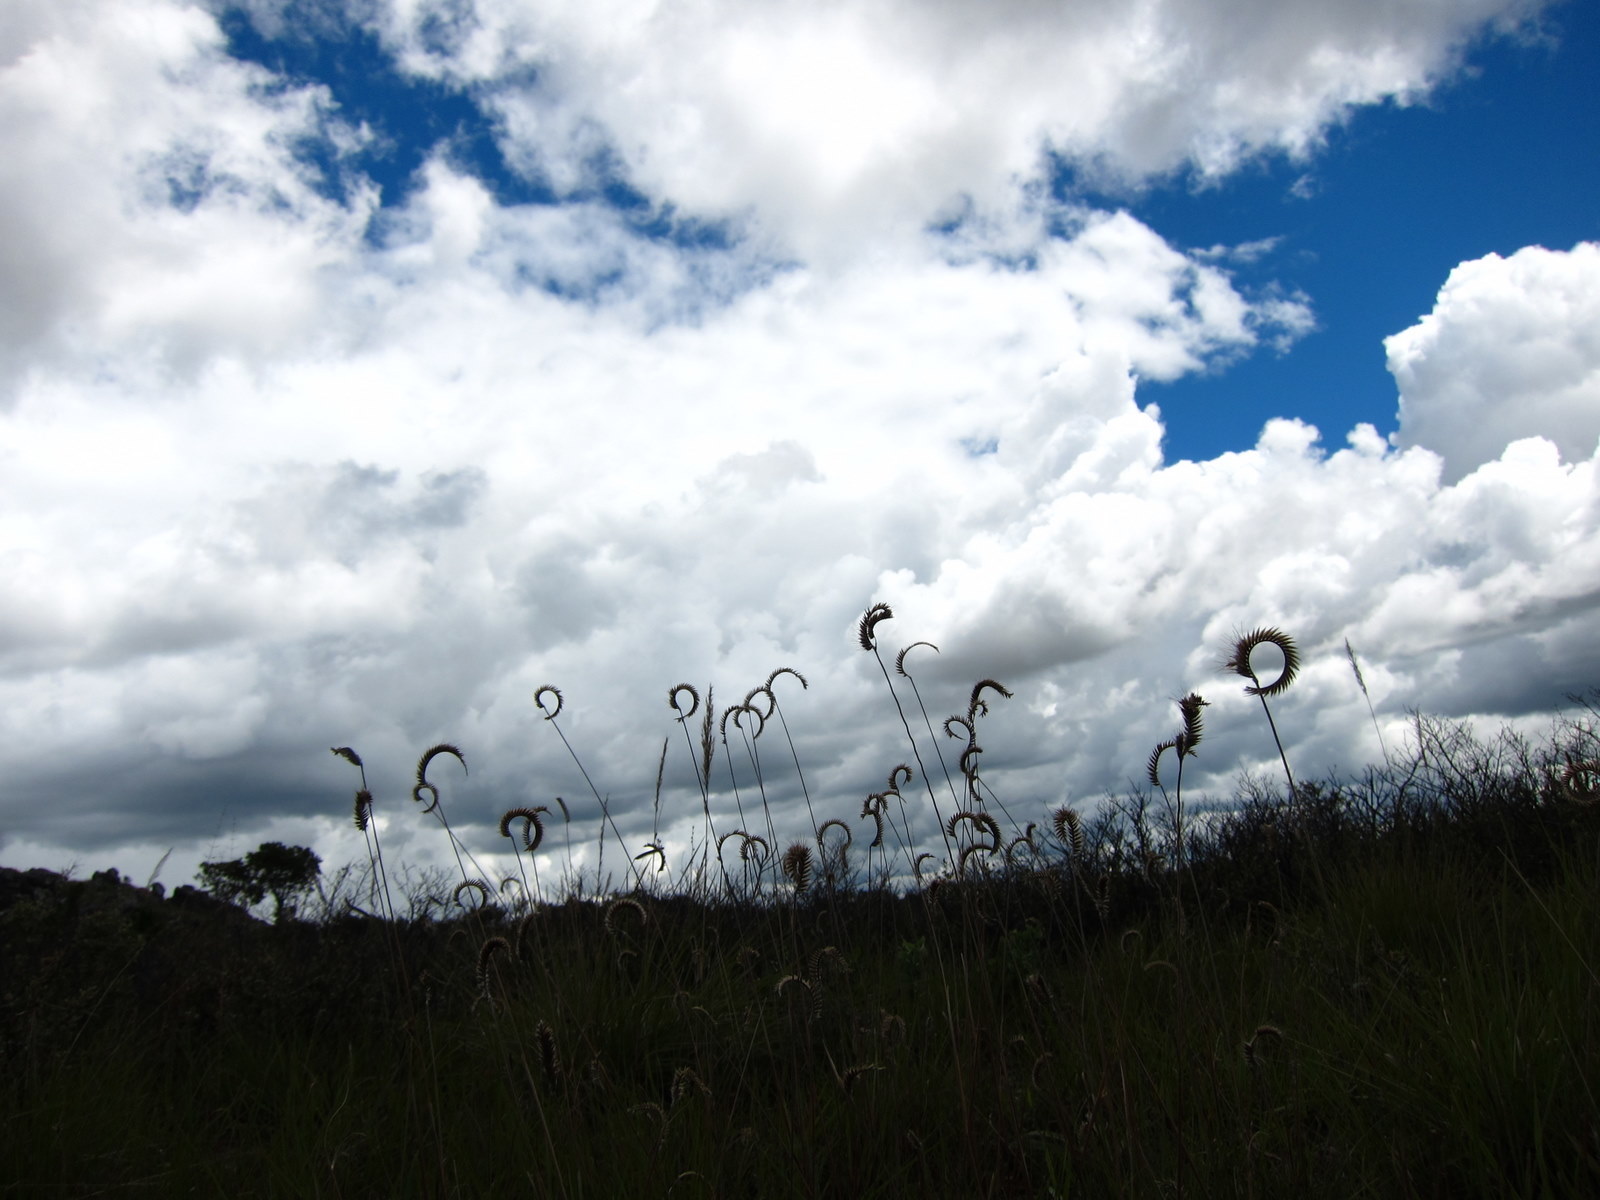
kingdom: Plantae
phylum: Tracheophyta
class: Liliopsida
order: Poales
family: Poaceae
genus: Ctenium
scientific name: Ctenium concinnum
